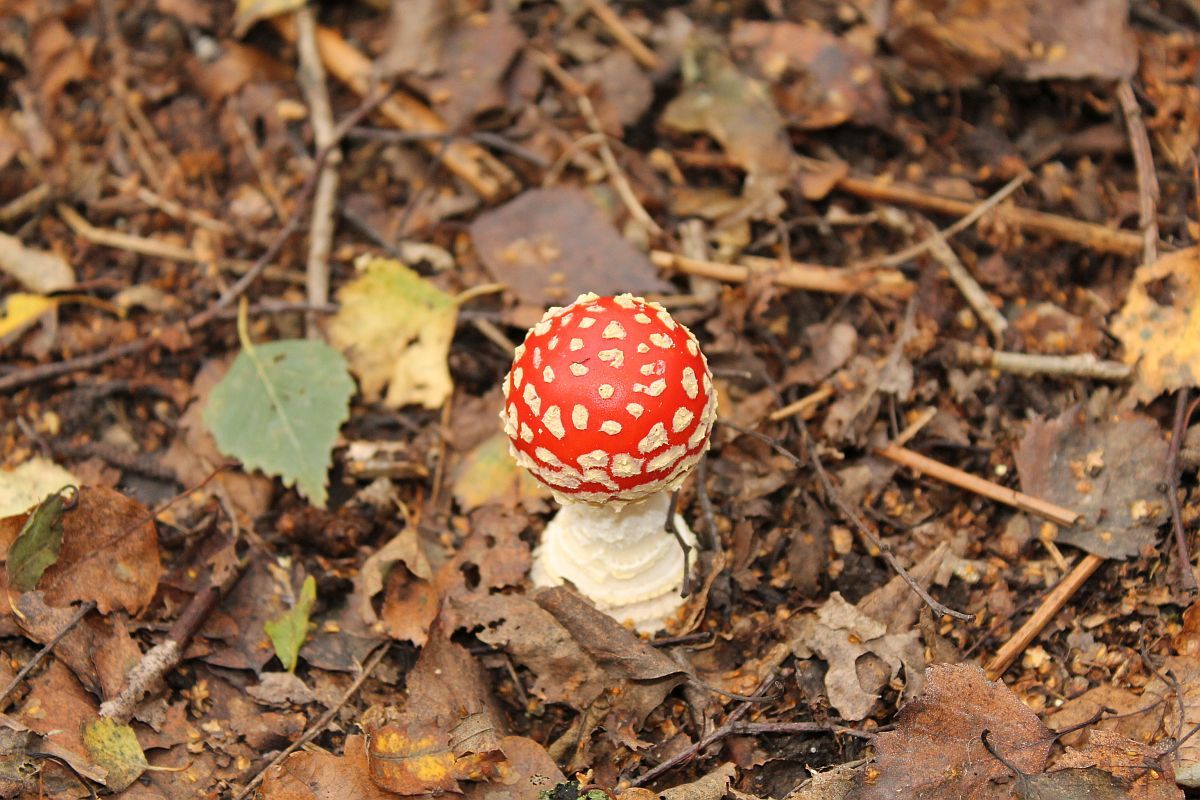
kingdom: Fungi
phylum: Basidiomycota
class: Agaricomycetes
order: Agaricales
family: Amanitaceae
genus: Amanita
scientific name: Amanita muscaria
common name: Fly agaric
